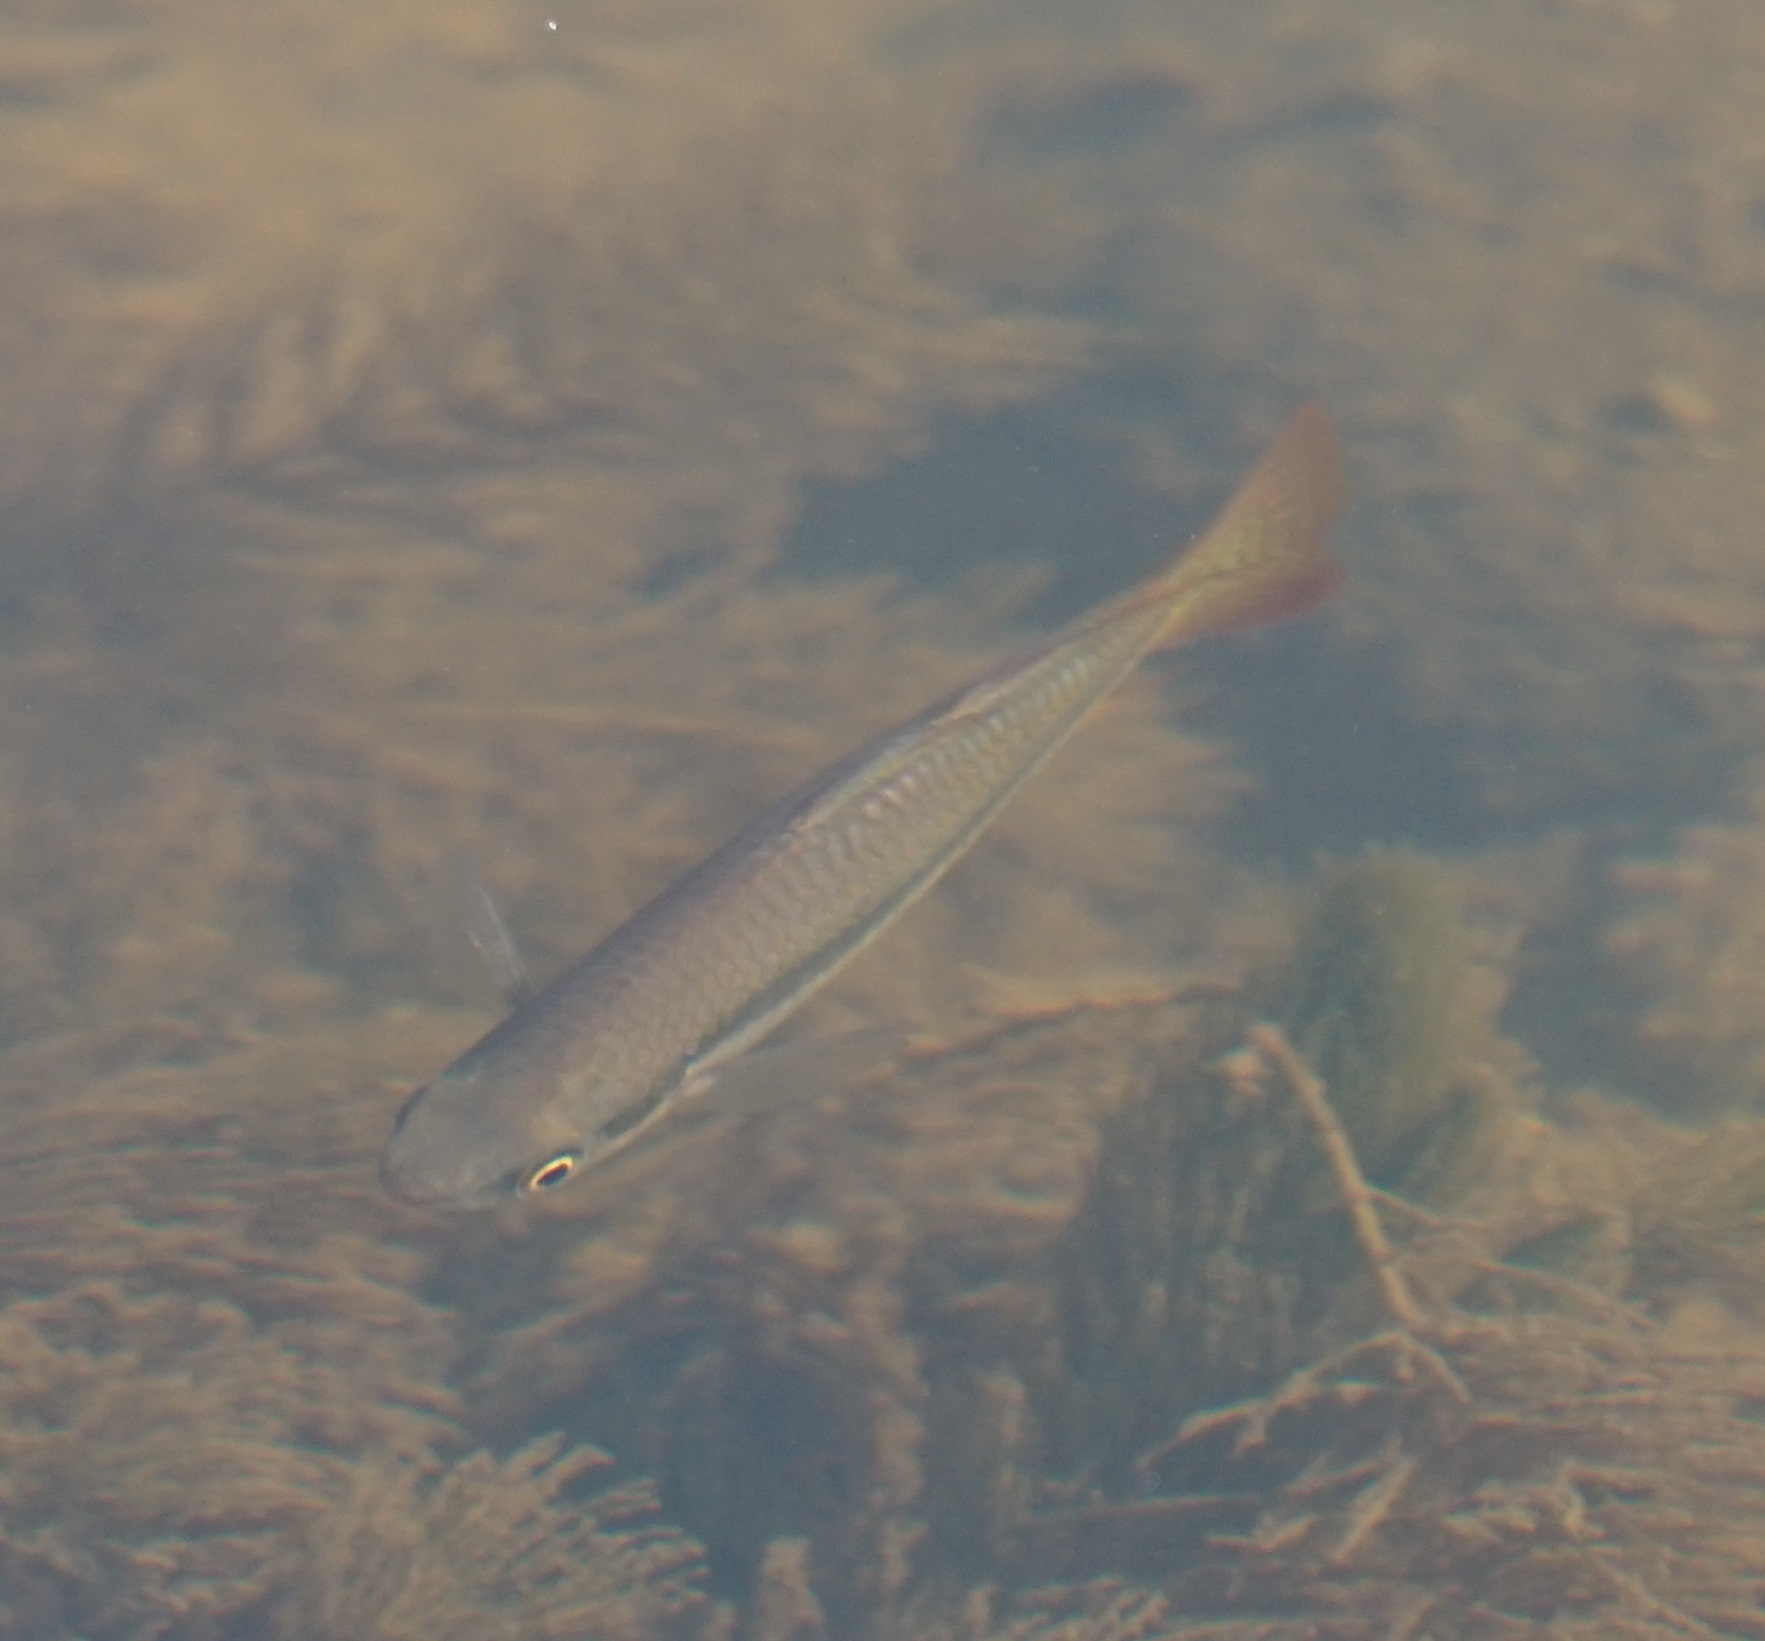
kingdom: Animalia
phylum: Chordata
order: Atheriniformes
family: Melanotaeniidae
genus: Melanotaenia
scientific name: Melanotaenia splendida
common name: Checkered rainbowfish
